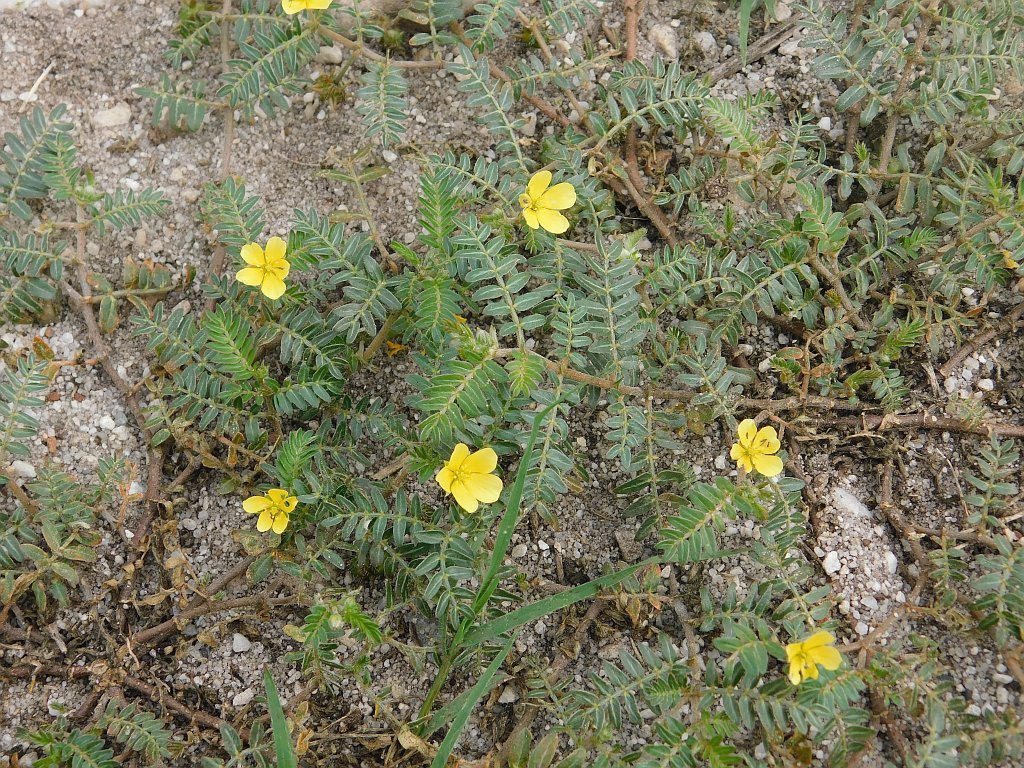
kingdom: Plantae
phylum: Tracheophyta
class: Magnoliopsida
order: Zygophyllales
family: Zygophyllaceae
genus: Tribulus
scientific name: Tribulus terrestris
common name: Puncturevine
